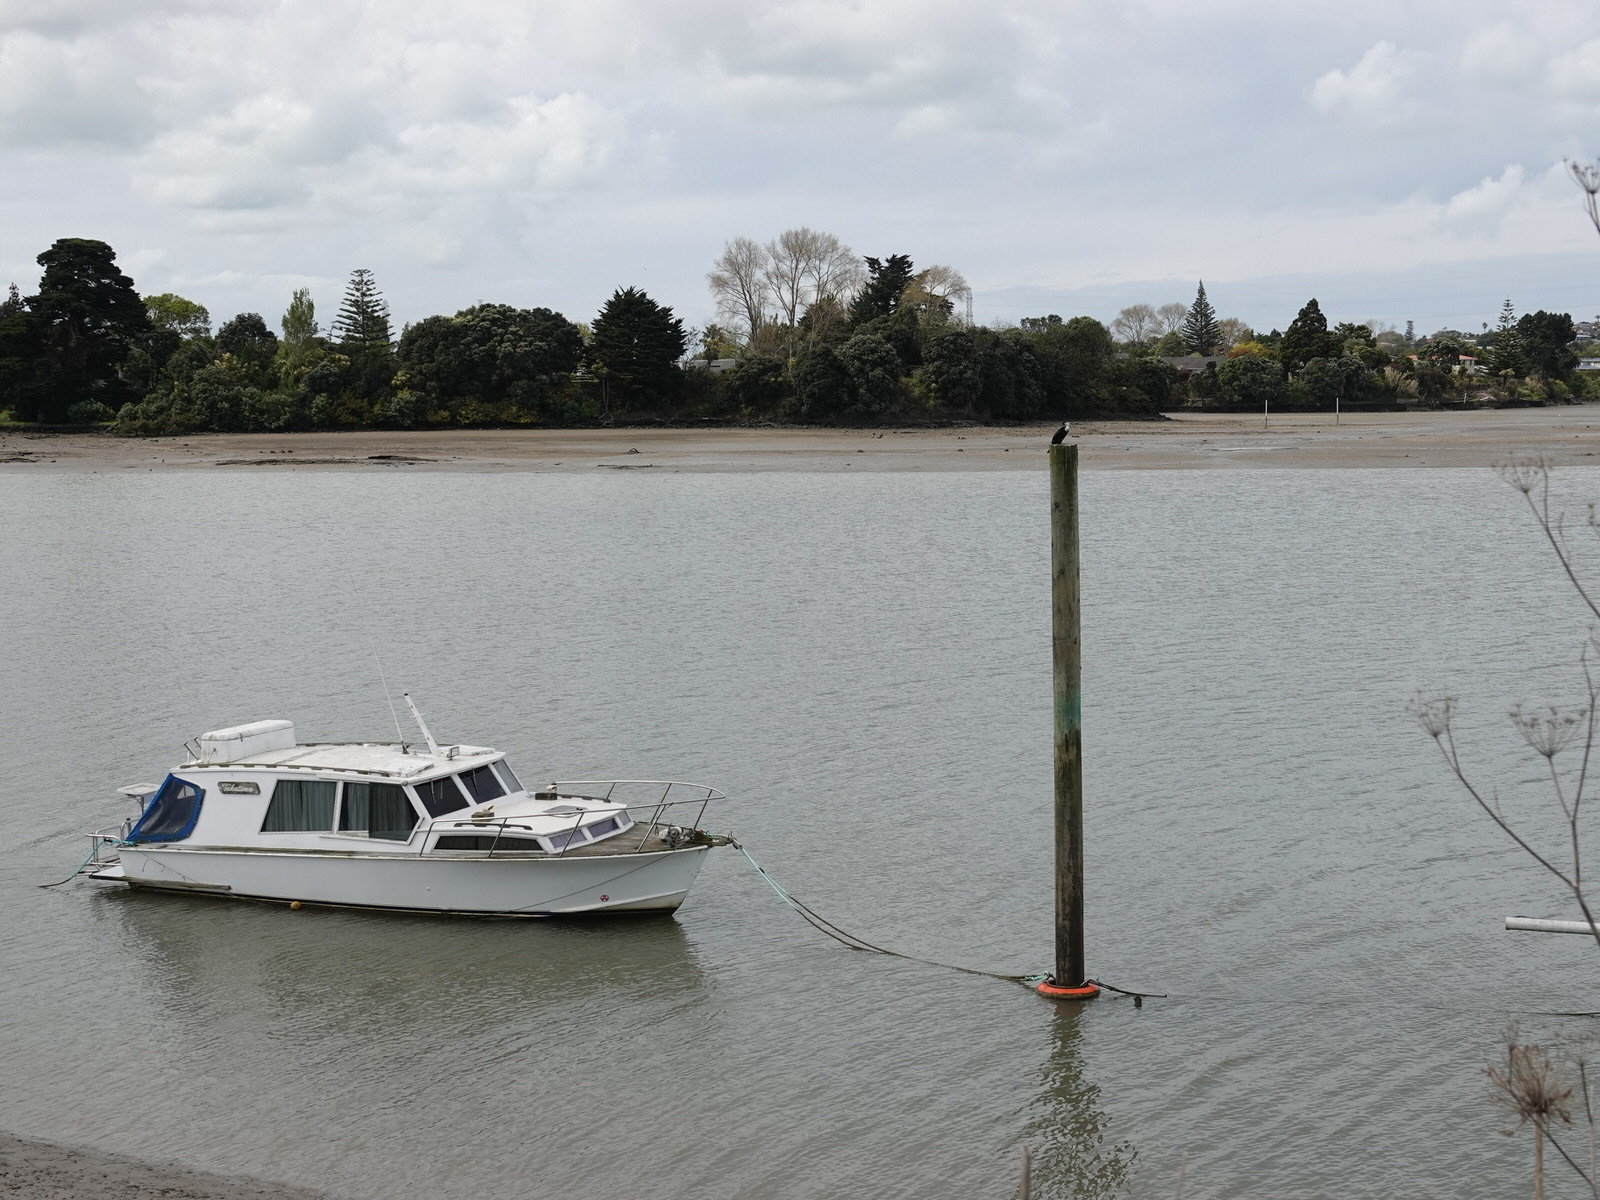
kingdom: Animalia
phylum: Chordata
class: Aves
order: Suliformes
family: Phalacrocoracidae
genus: Microcarbo
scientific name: Microcarbo melanoleucos
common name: Little pied cormorant
